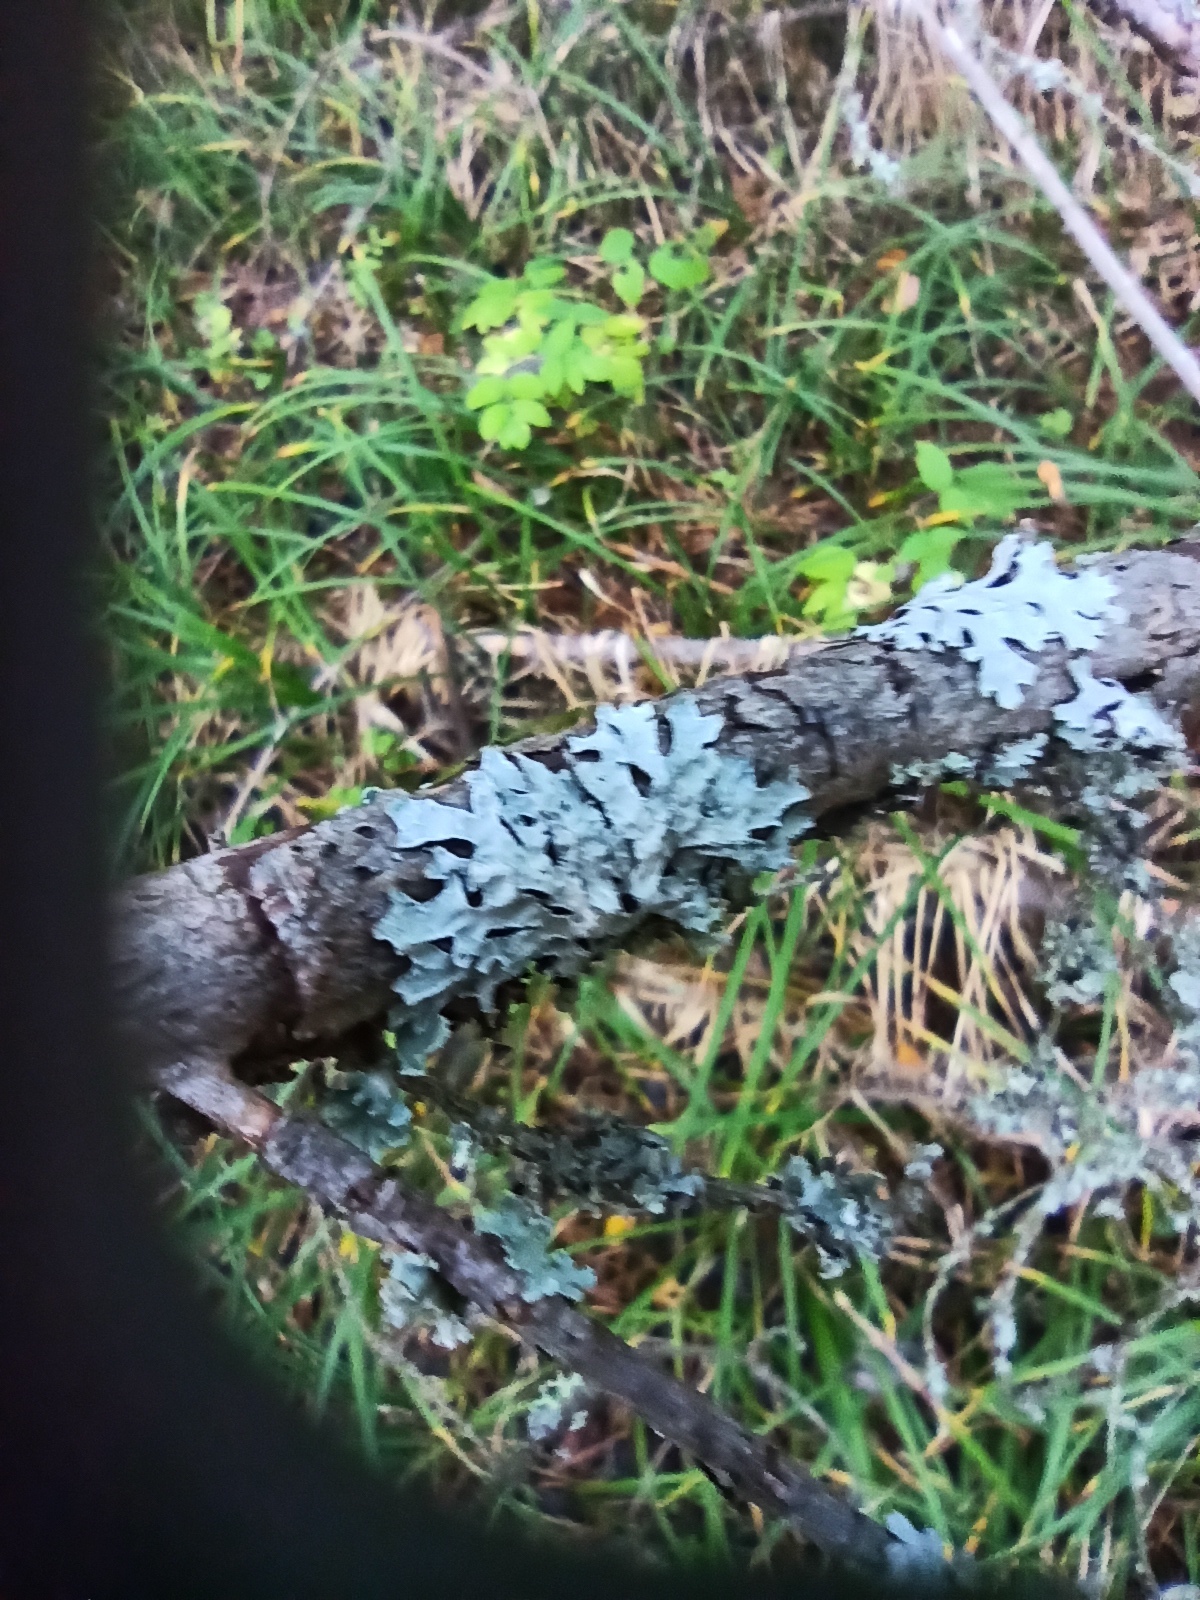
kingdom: Fungi
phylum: Ascomycota
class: Lecanoromycetes
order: Lecanorales
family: Parmeliaceae
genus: Parmelia
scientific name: Parmelia sulcata
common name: Netted shield lichen
